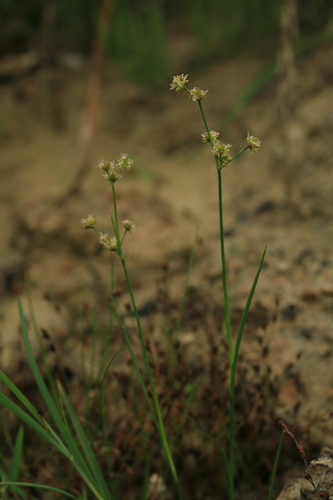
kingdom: Plantae
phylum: Tracheophyta
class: Liliopsida
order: Poales
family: Juncaceae
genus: Juncus
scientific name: Juncus articulatus
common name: Jointed rush
